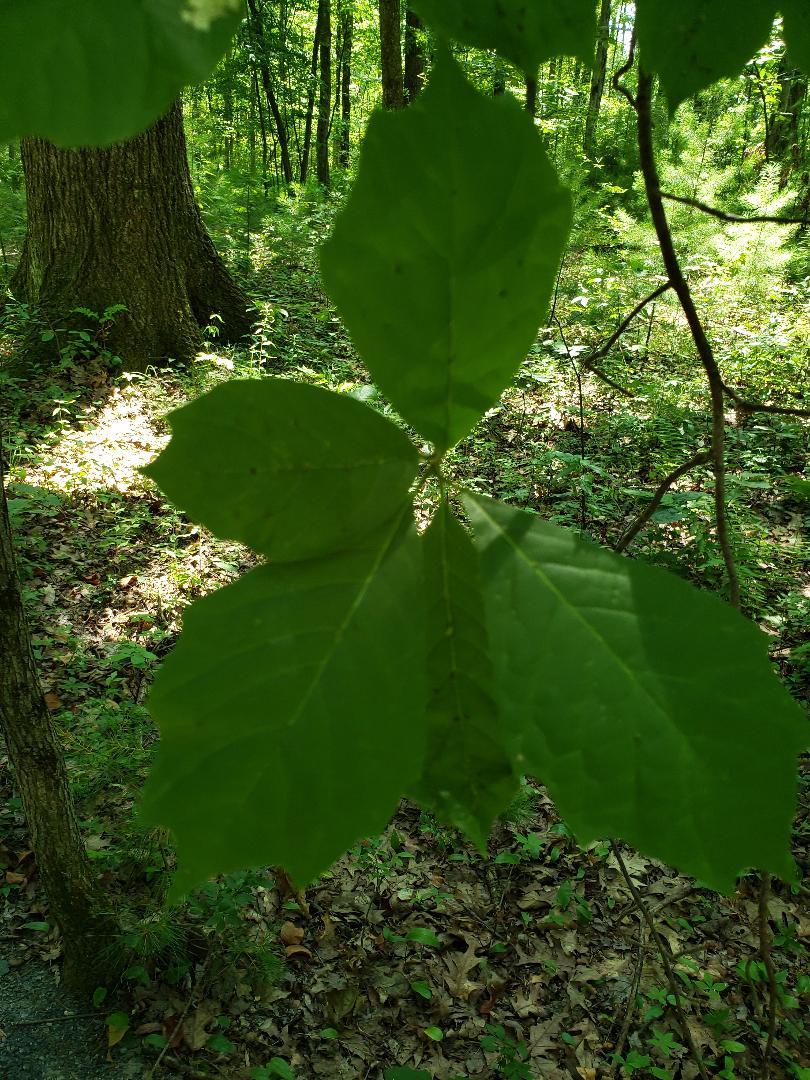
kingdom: Plantae
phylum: Tracheophyta
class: Magnoliopsida
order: Cornales
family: Nyssaceae
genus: Nyssa
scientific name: Nyssa sylvatica
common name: Black tupelo
